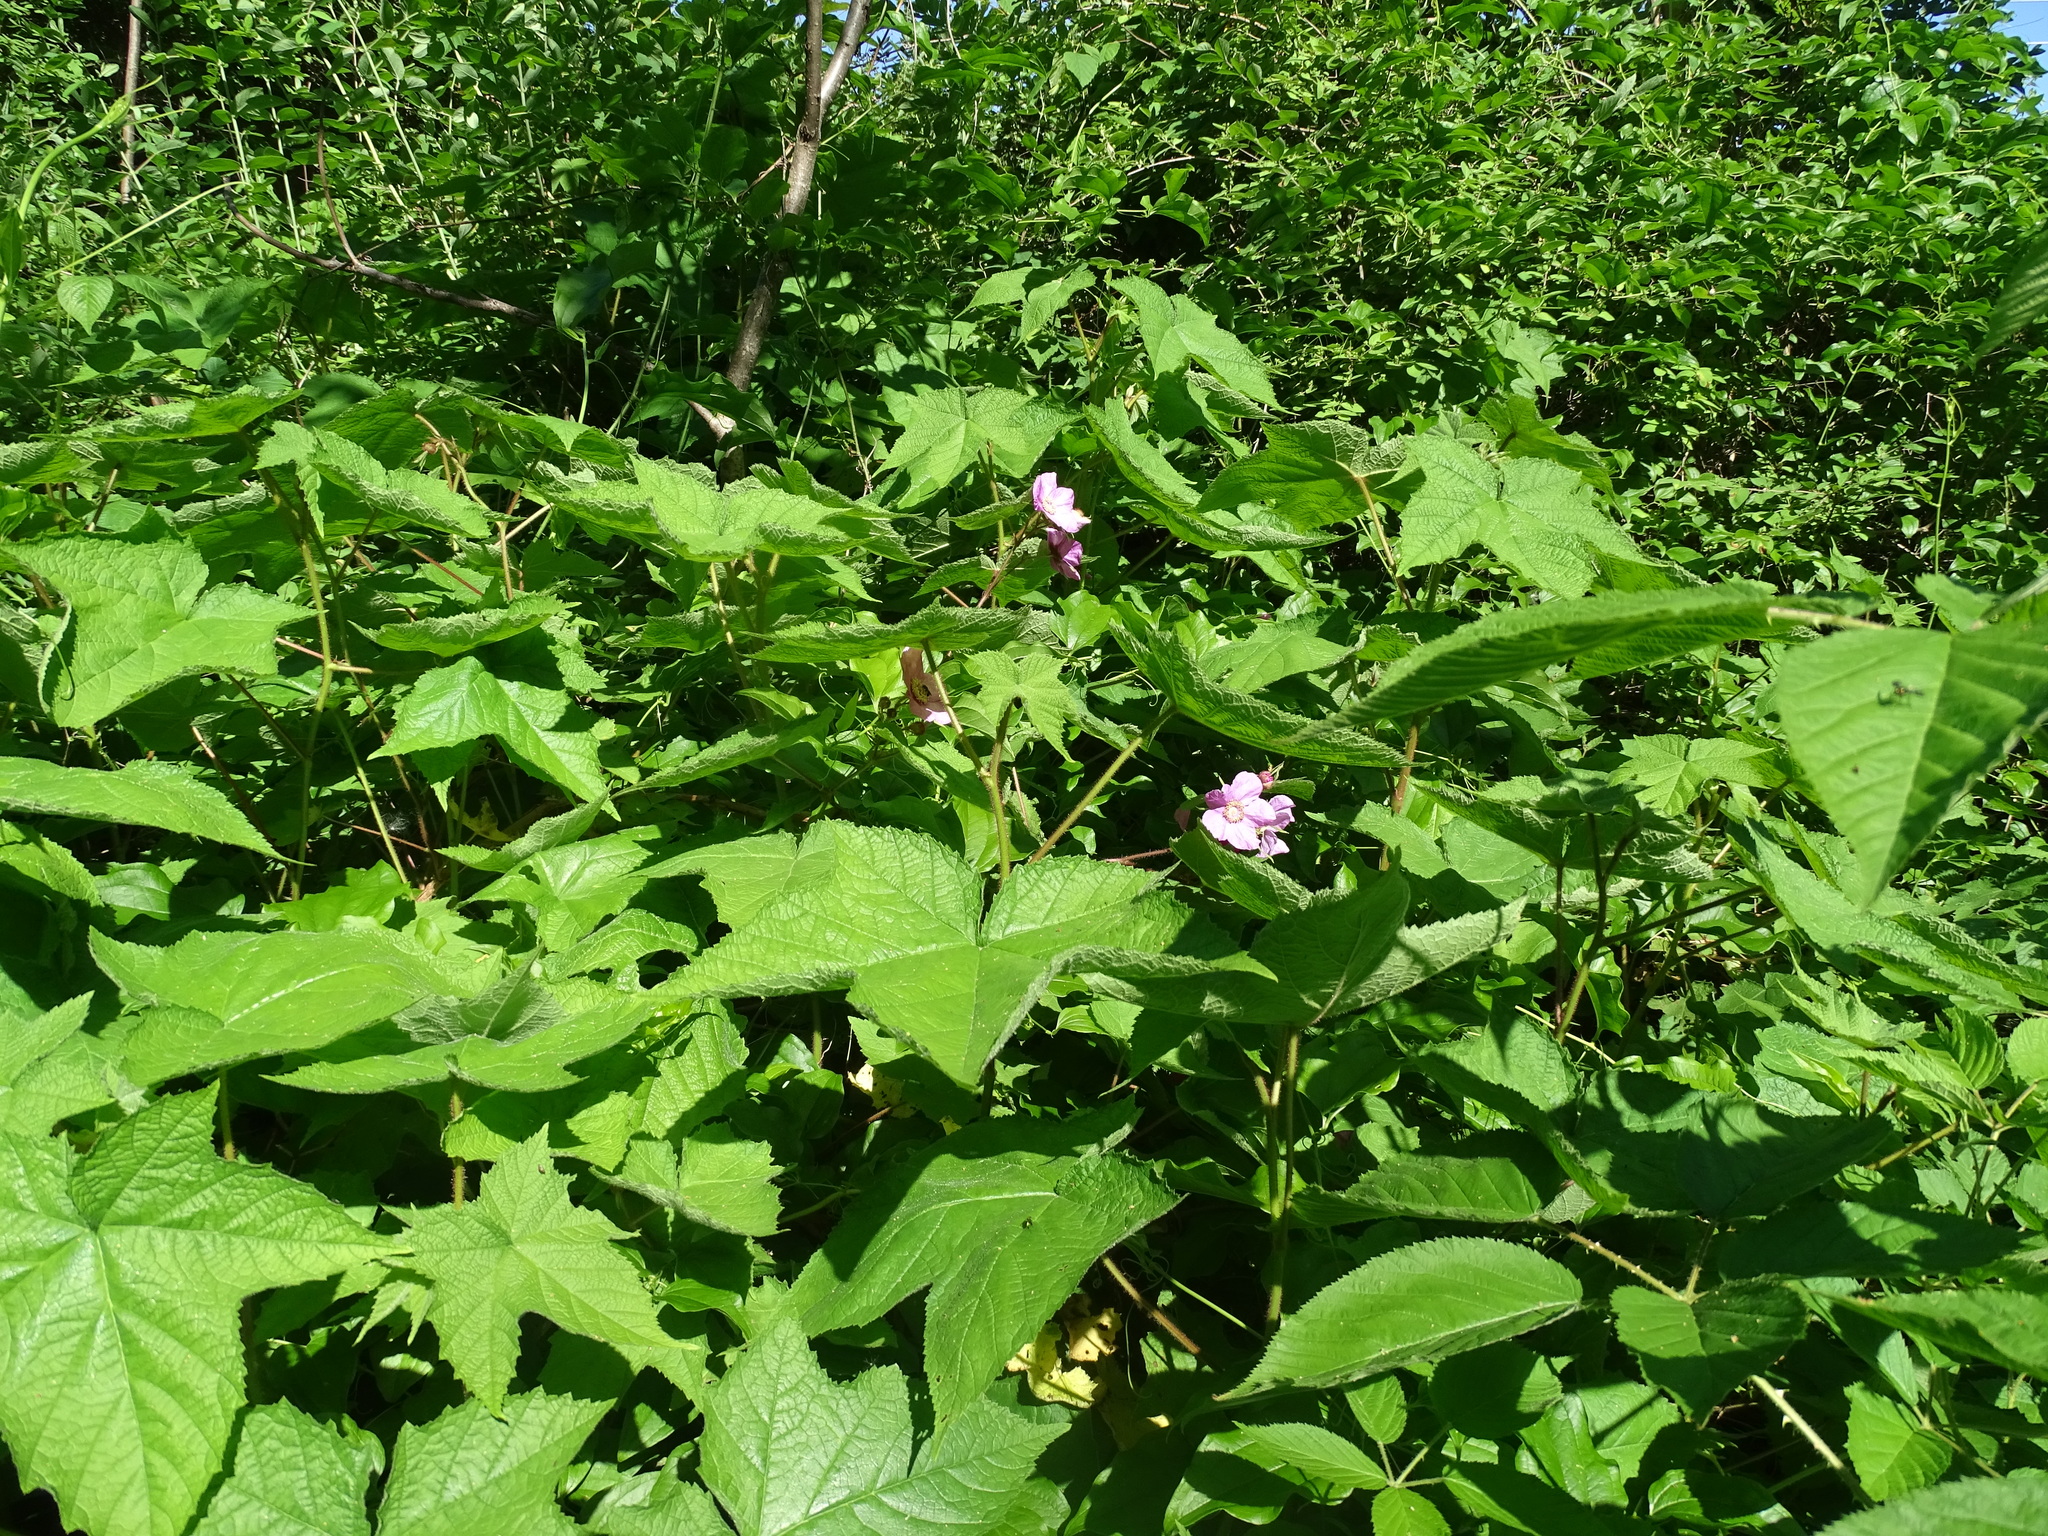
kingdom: Plantae
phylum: Tracheophyta
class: Magnoliopsida
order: Rosales
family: Rosaceae
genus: Rubus
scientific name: Rubus odoratus
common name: Purple-flowered raspberry
